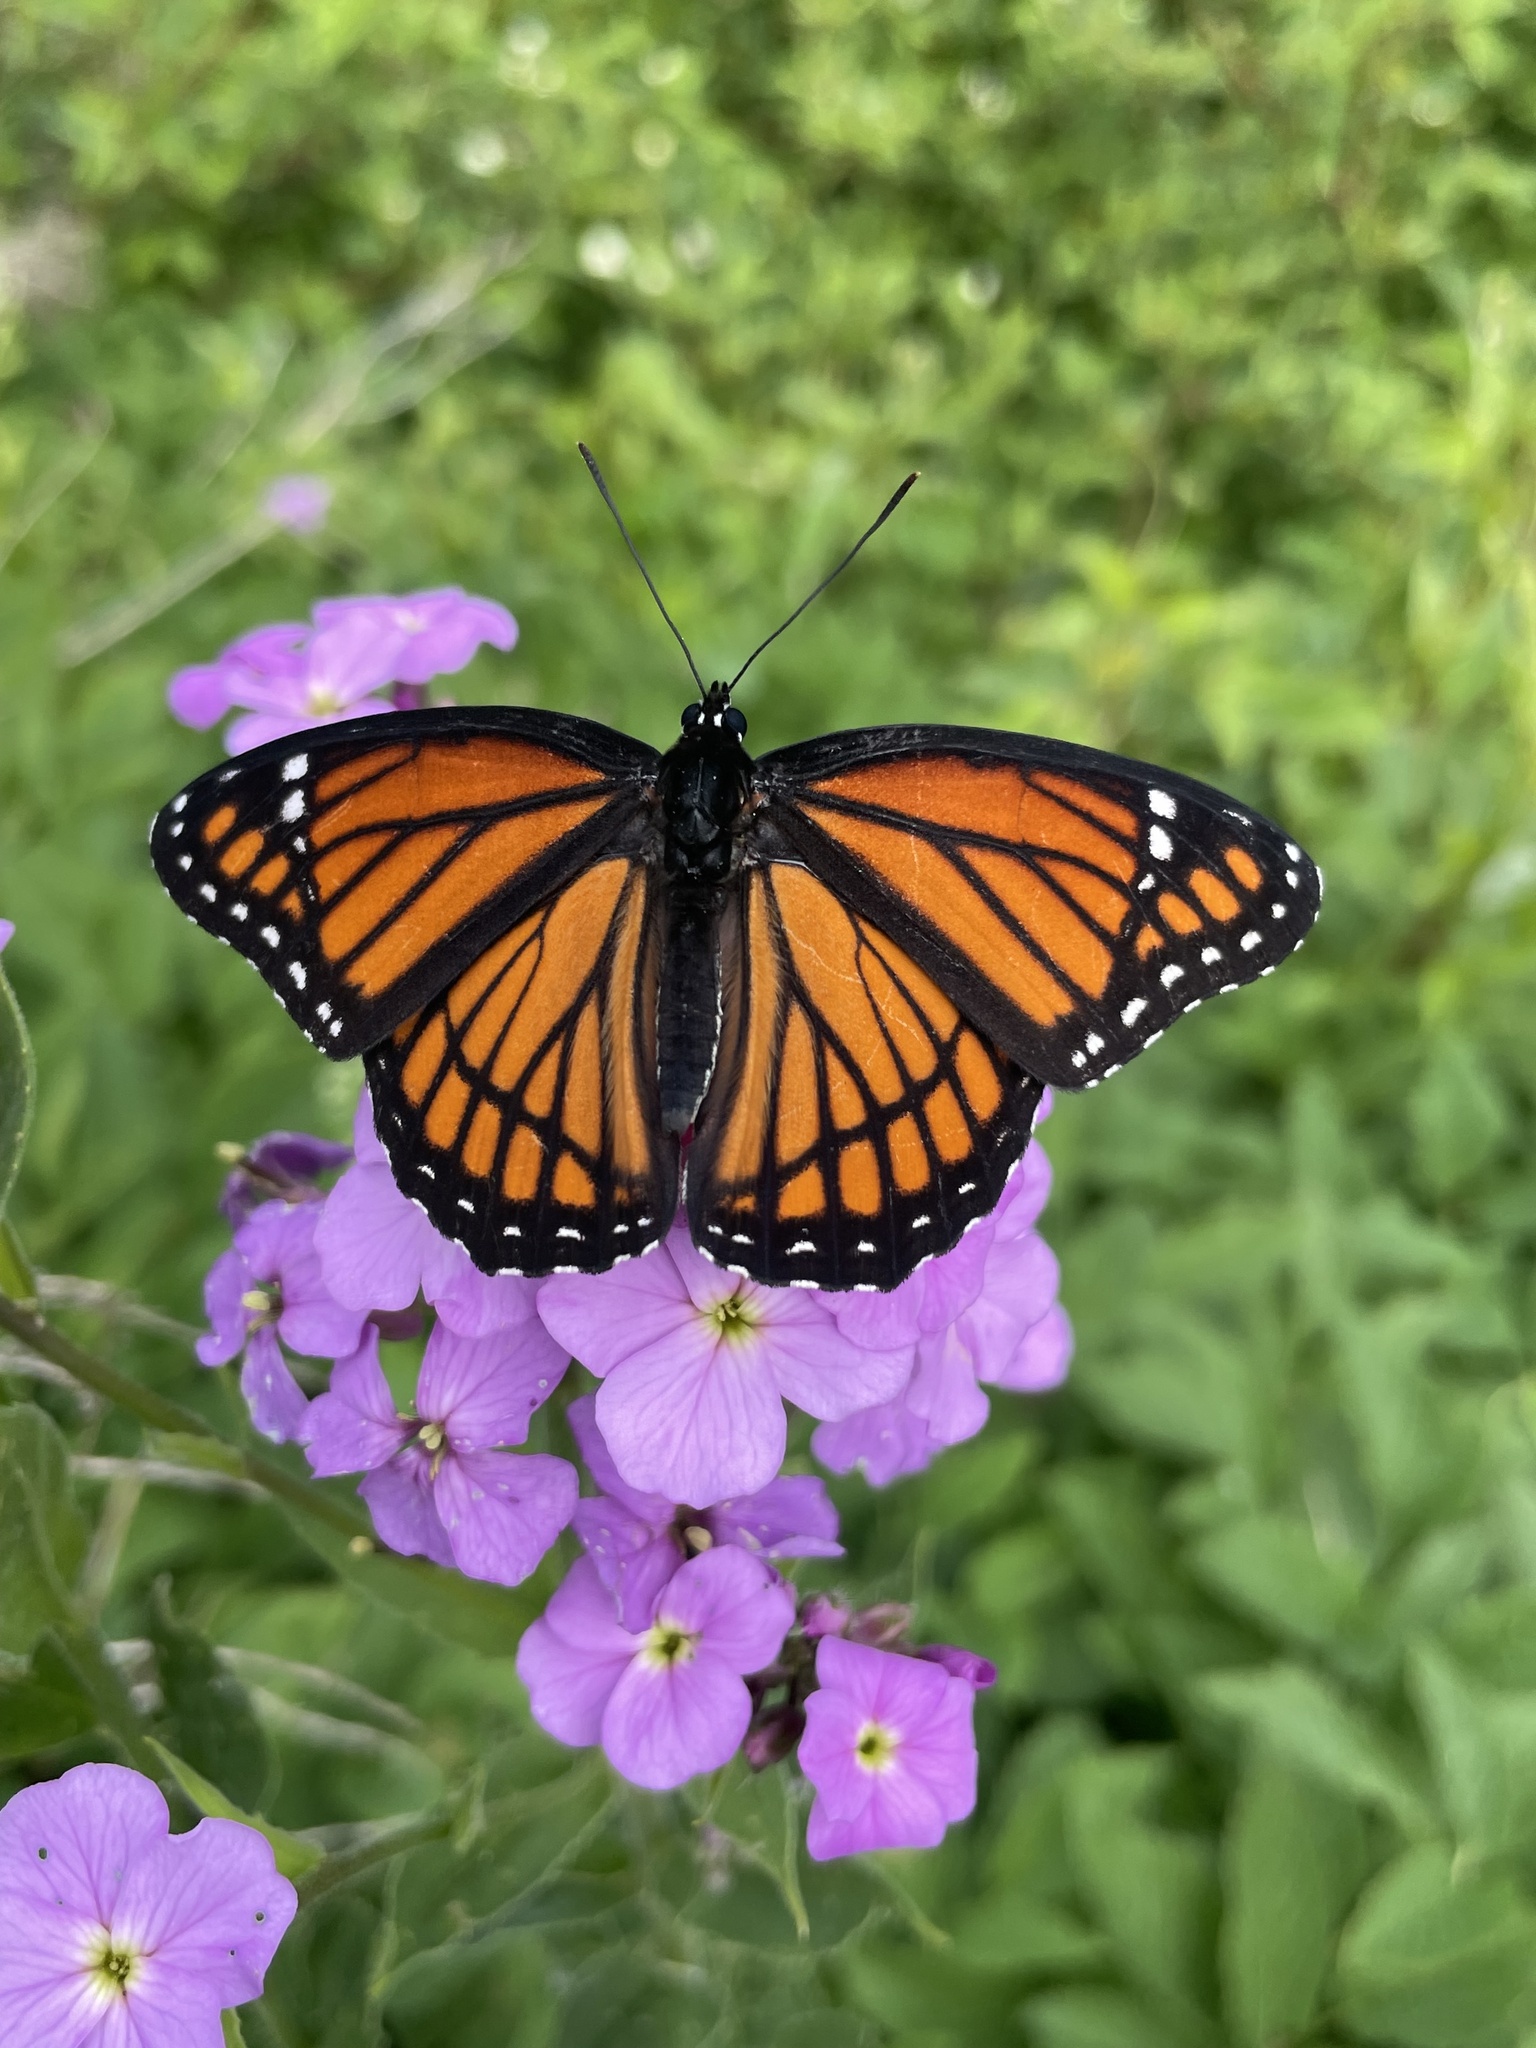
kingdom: Animalia
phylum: Arthropoda
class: Insecta
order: Lepidoptera
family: Nymphalidae
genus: Limenitis
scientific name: Limenitis archippus
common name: Viceroy
